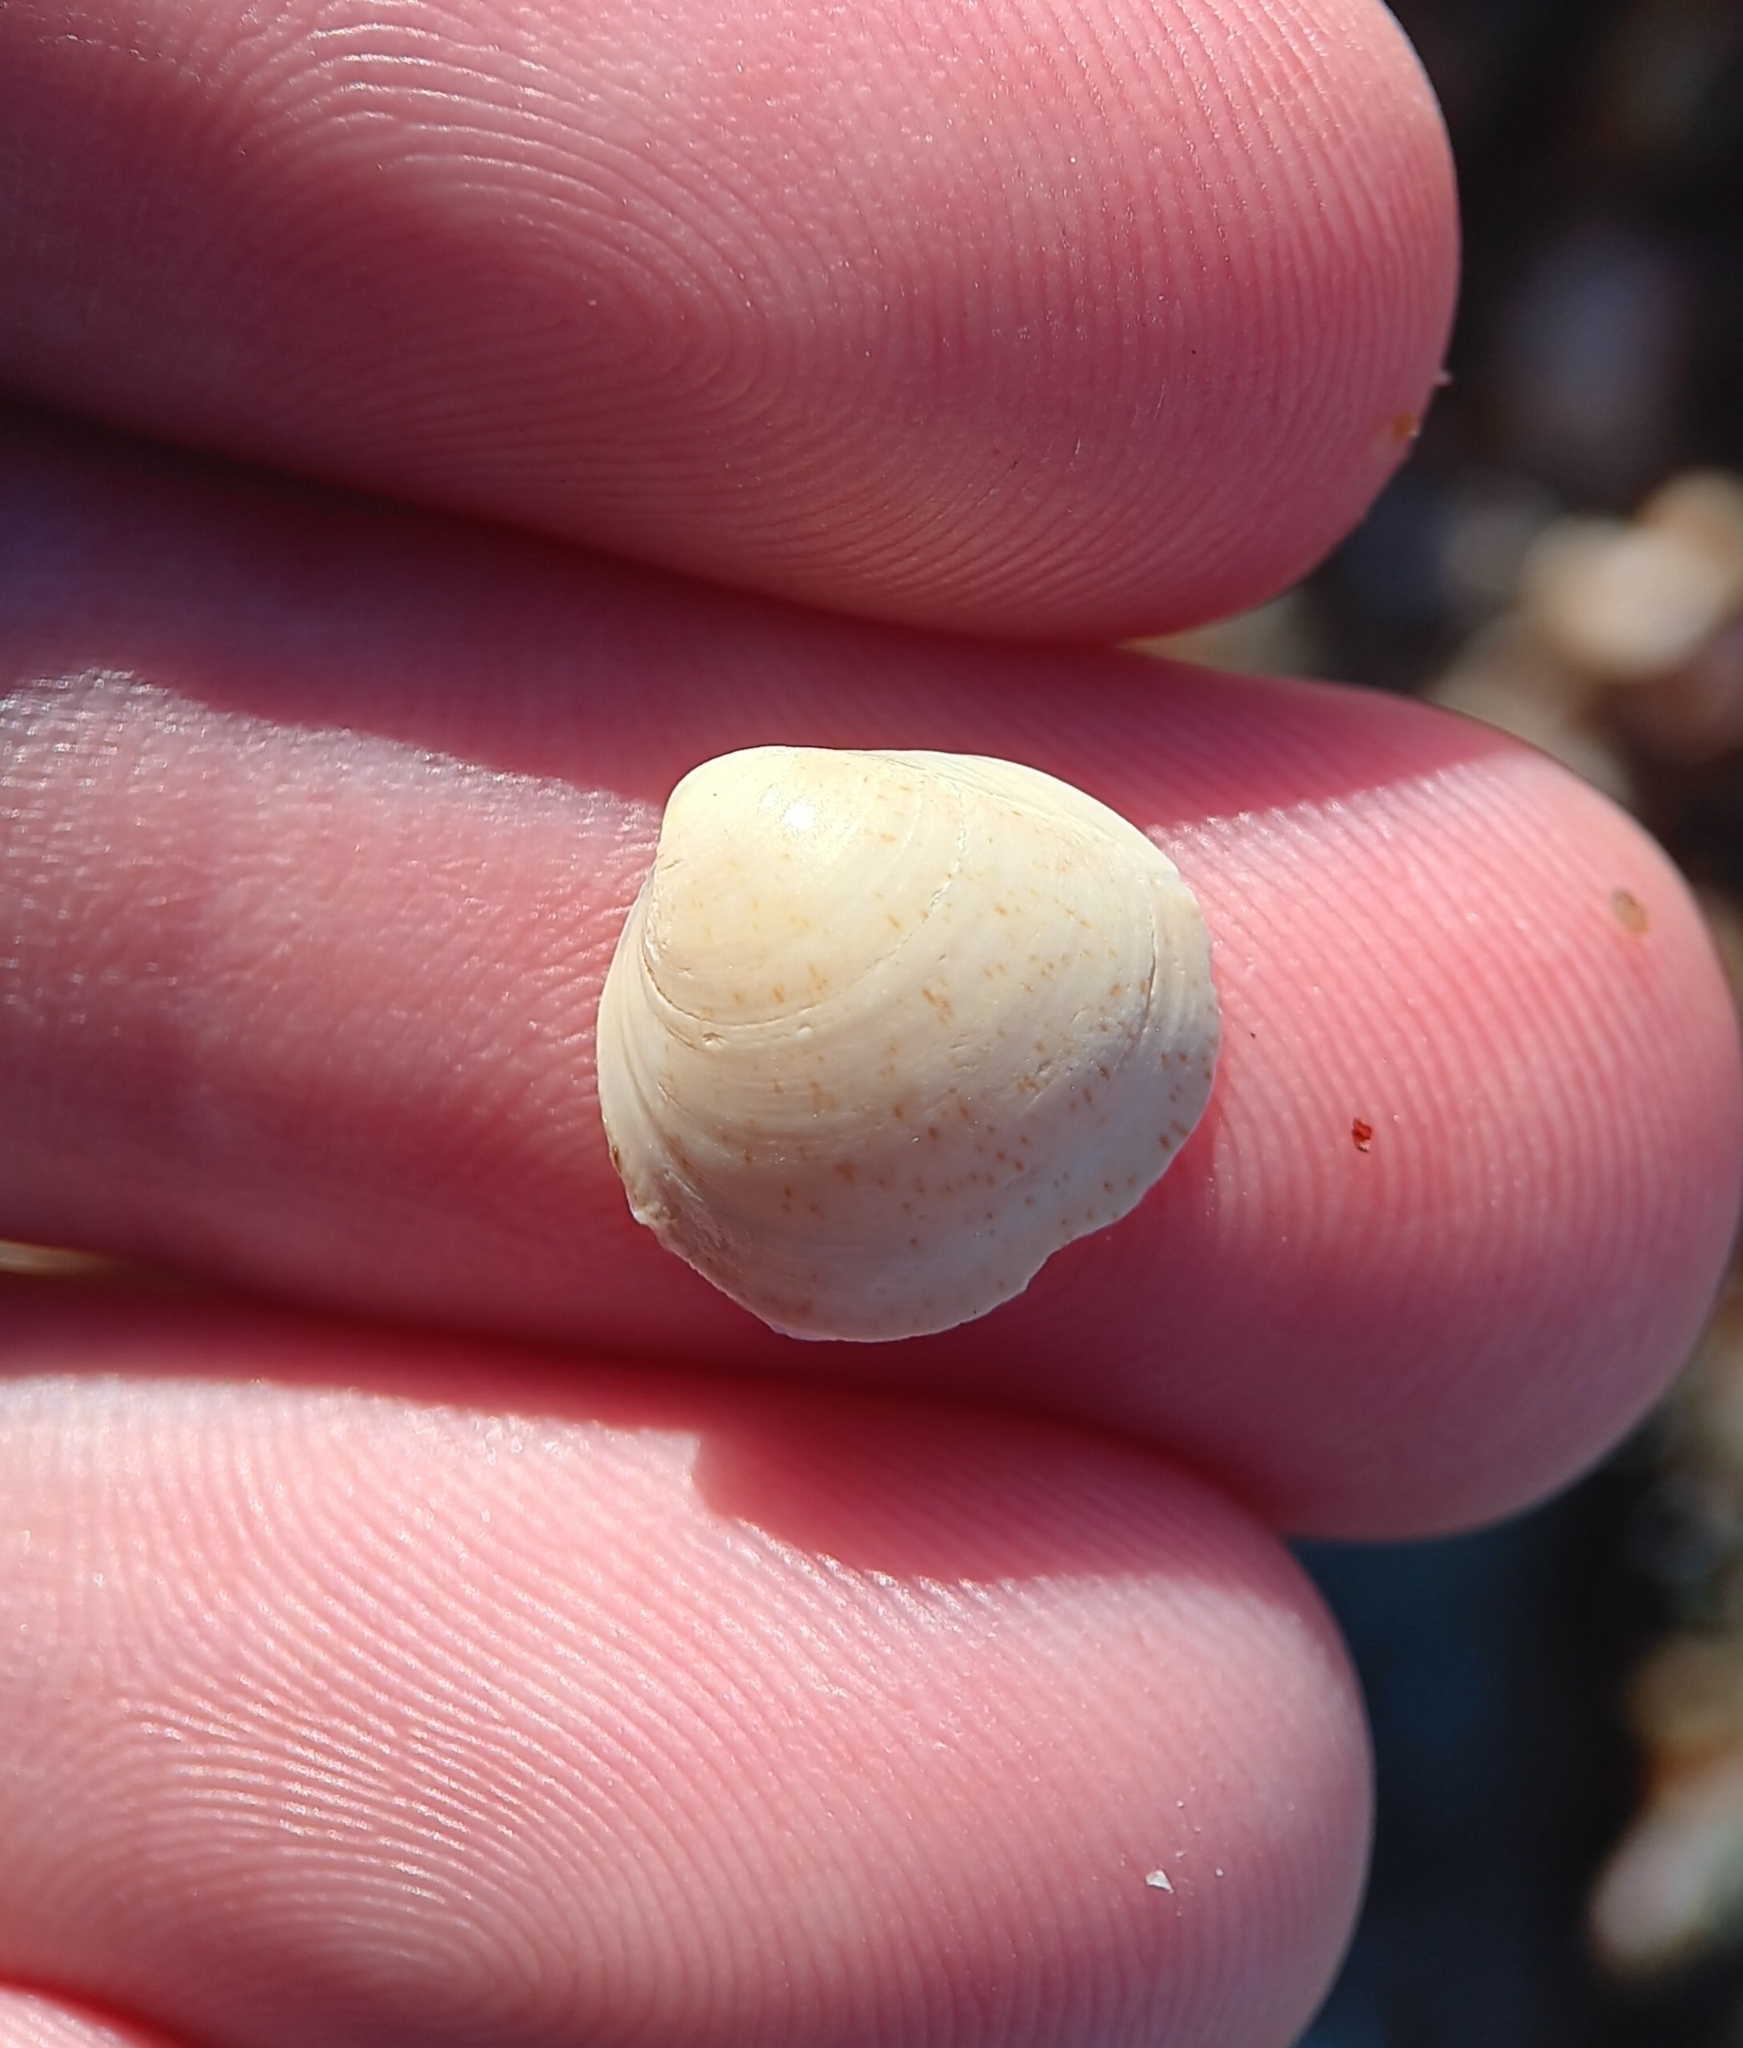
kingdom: Animalia
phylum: Mollusca
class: Bivalvia
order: Cardiida
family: Cardiidae
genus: Laevicardium
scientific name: Laevicardium mortoni
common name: Morton eggcockle
